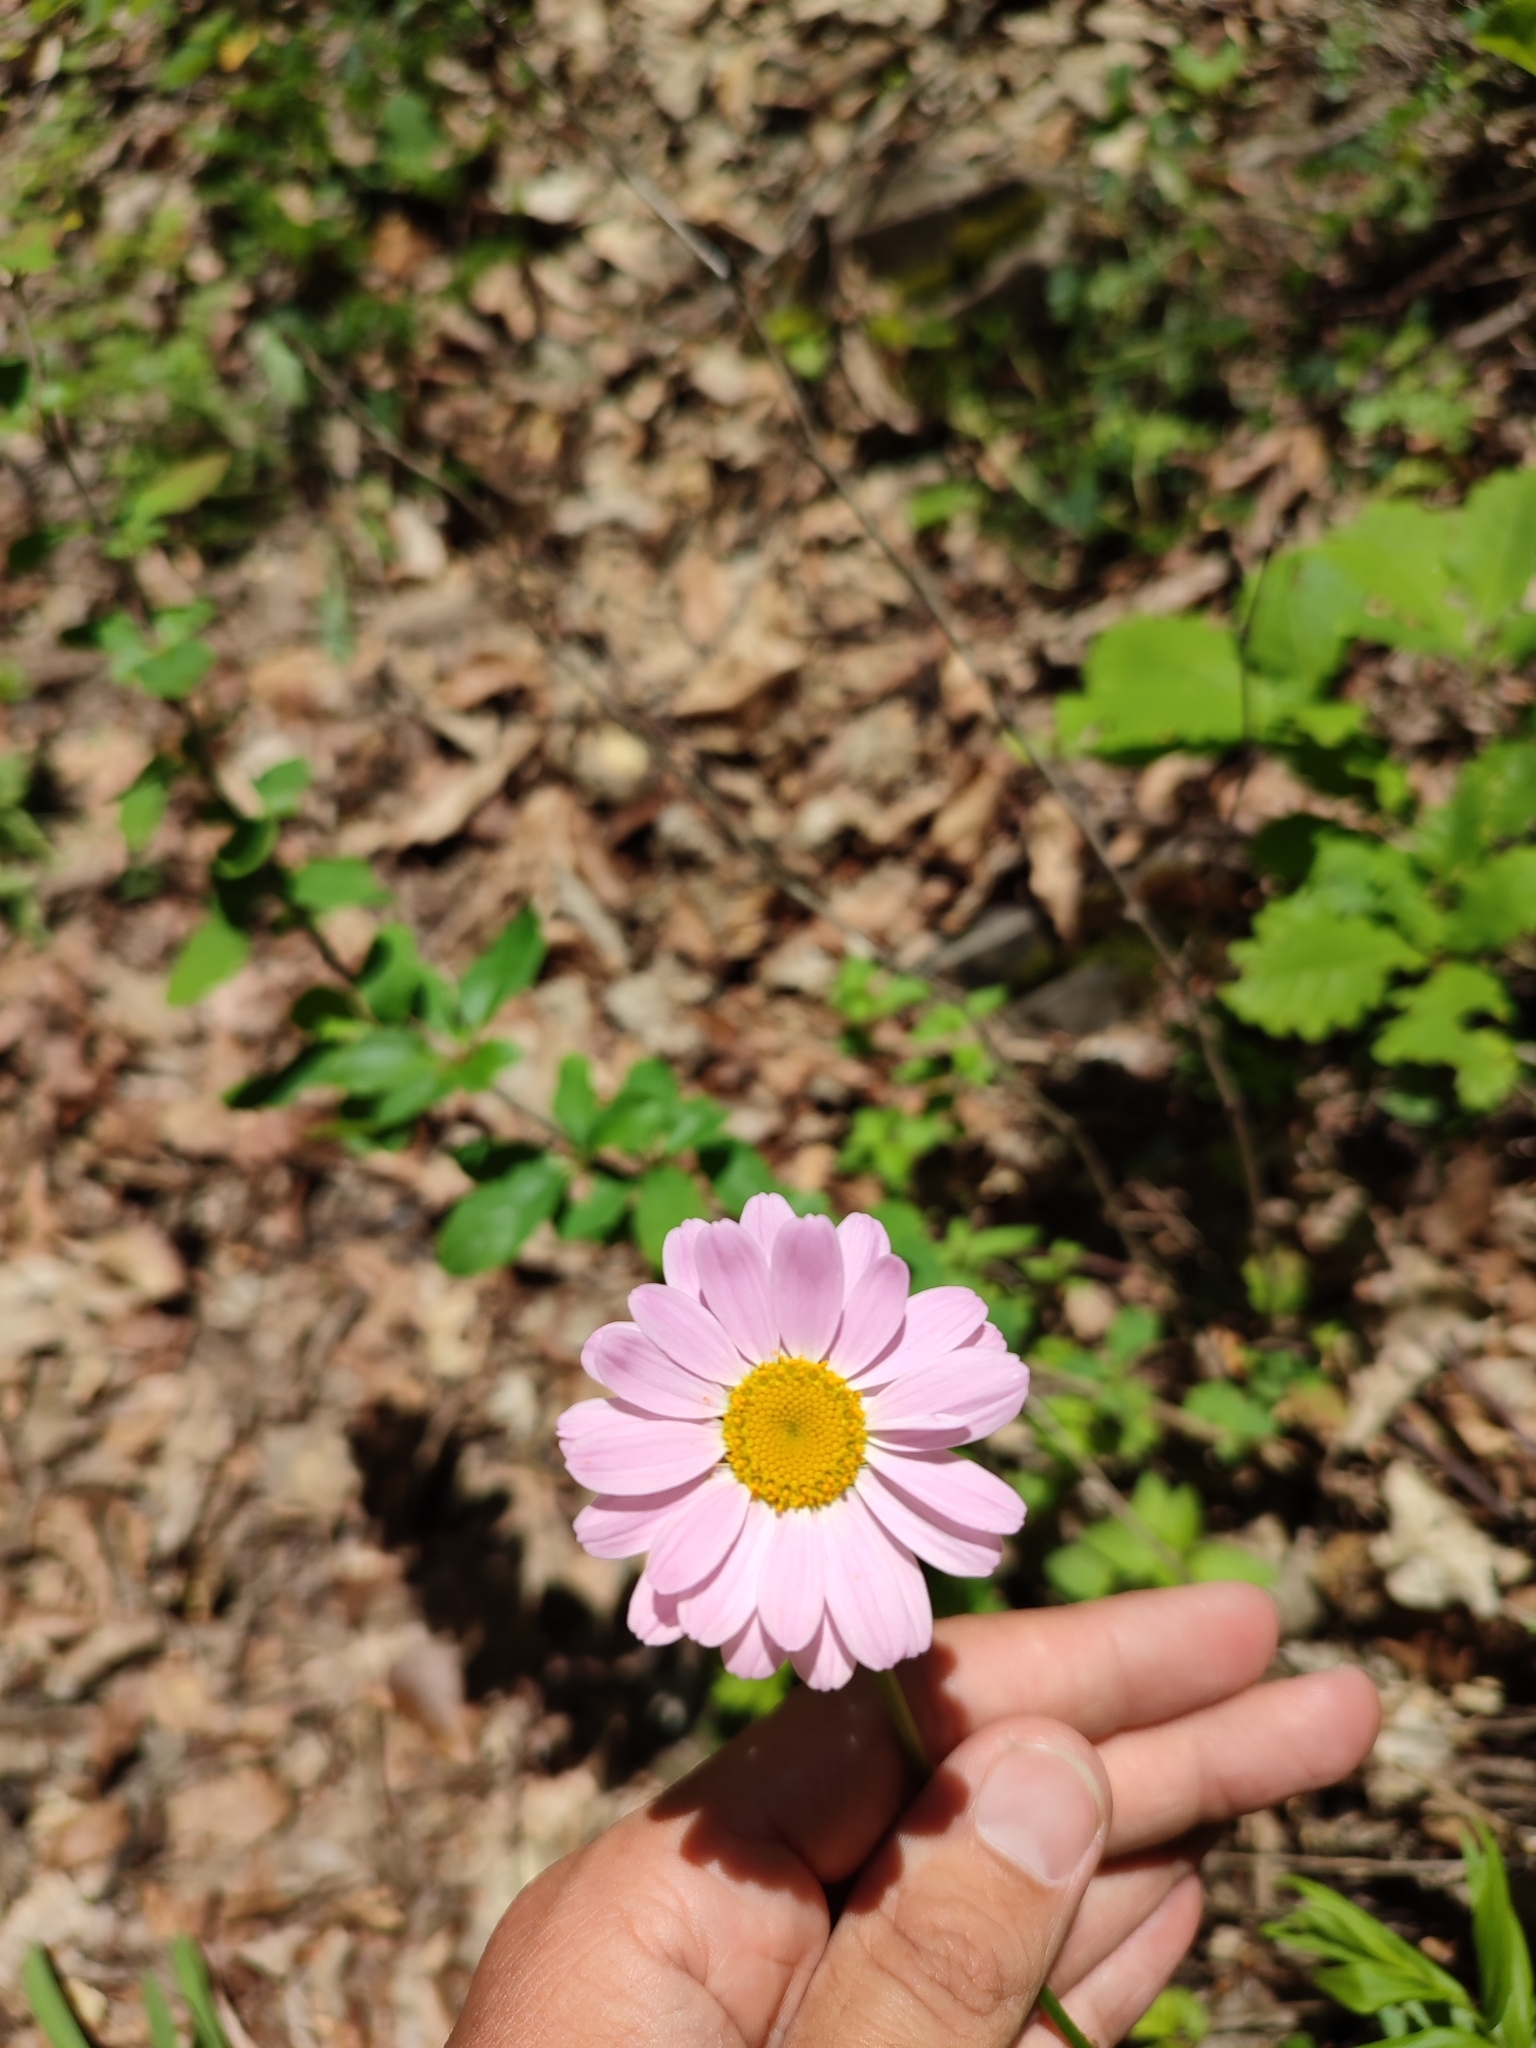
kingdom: Plantae
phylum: Tracheophyta
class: Magnoliopsida
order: Asterales
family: Asteraceae
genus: Tanacetum
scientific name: Tanacetum coccineum
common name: Pyrethum daisy
